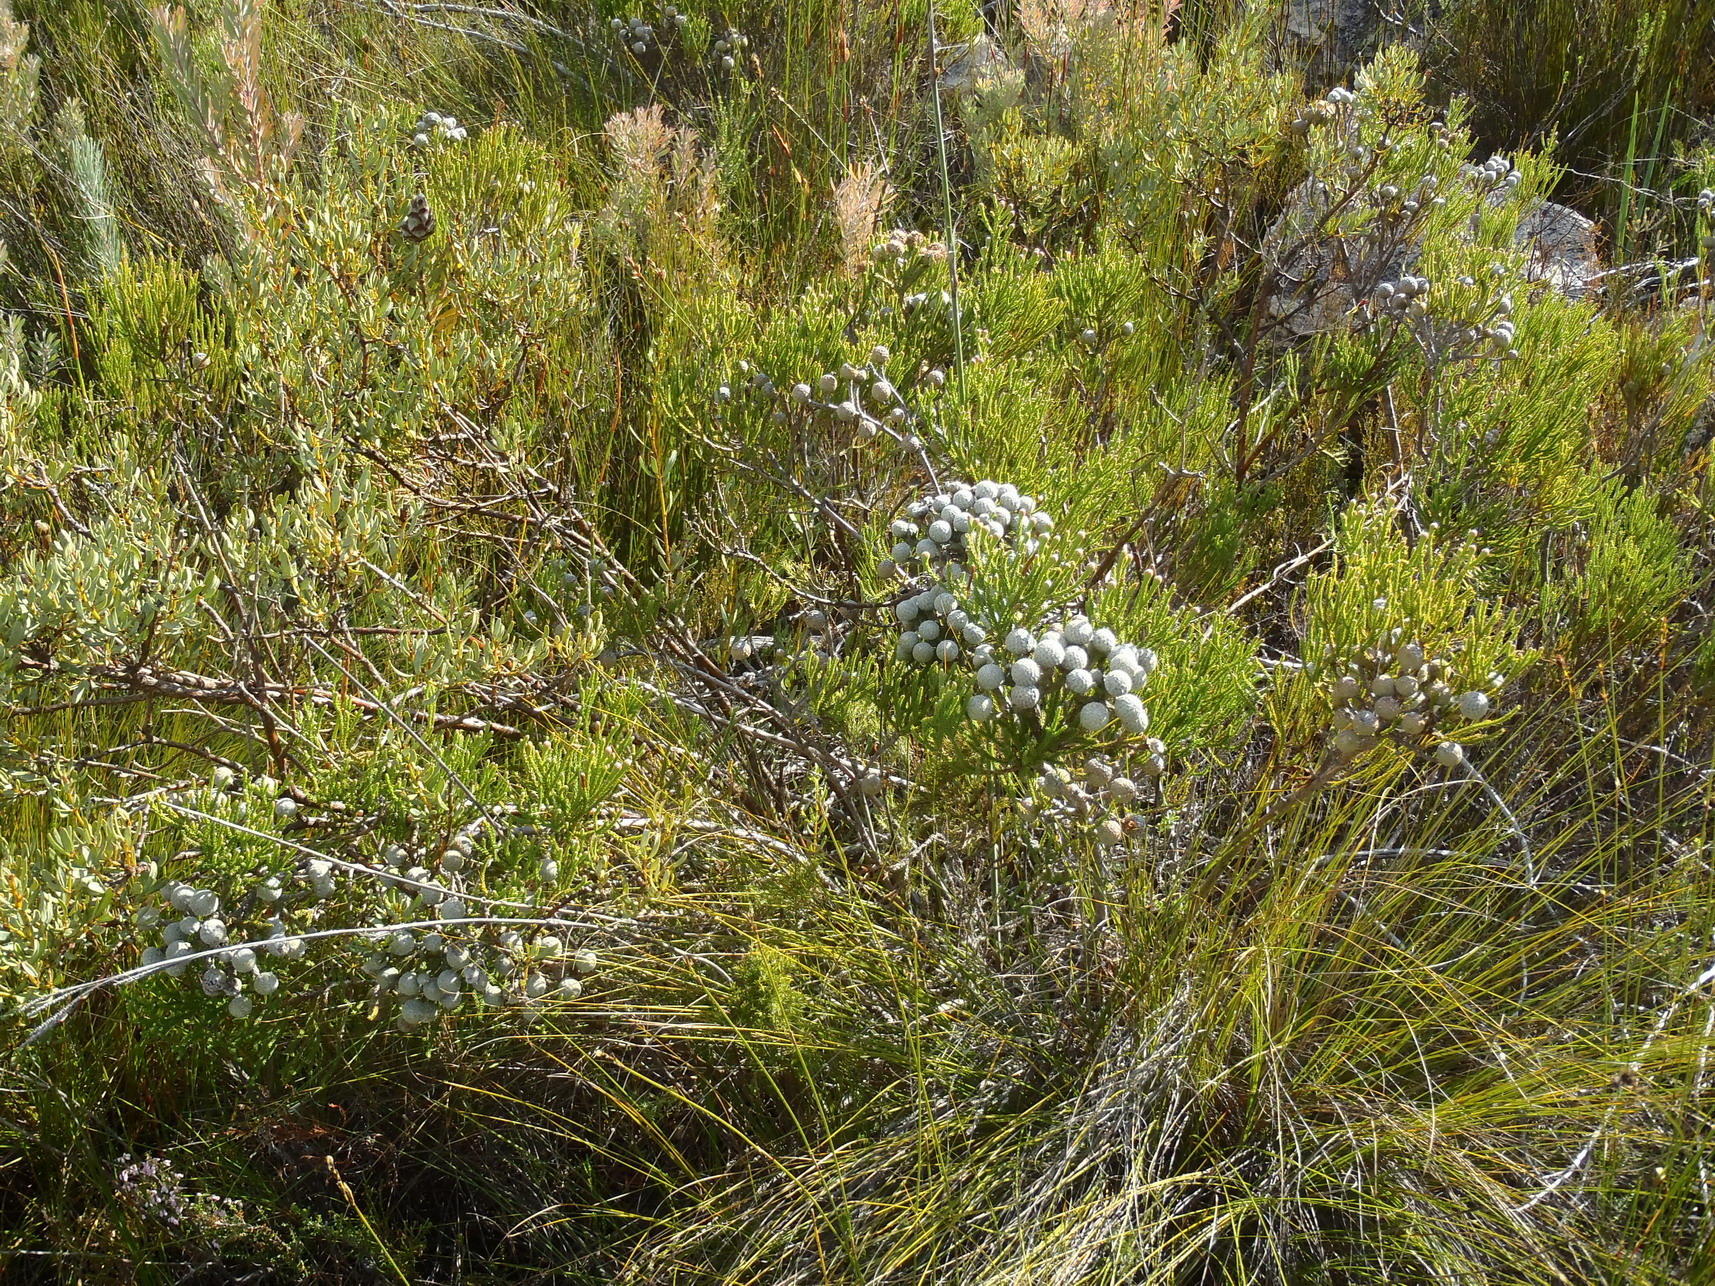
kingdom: Plantae
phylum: Tracheophyta
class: Magnoliopsida
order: Bruniales
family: Bruniaceae
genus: Brunia
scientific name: Brunia noduliflora
